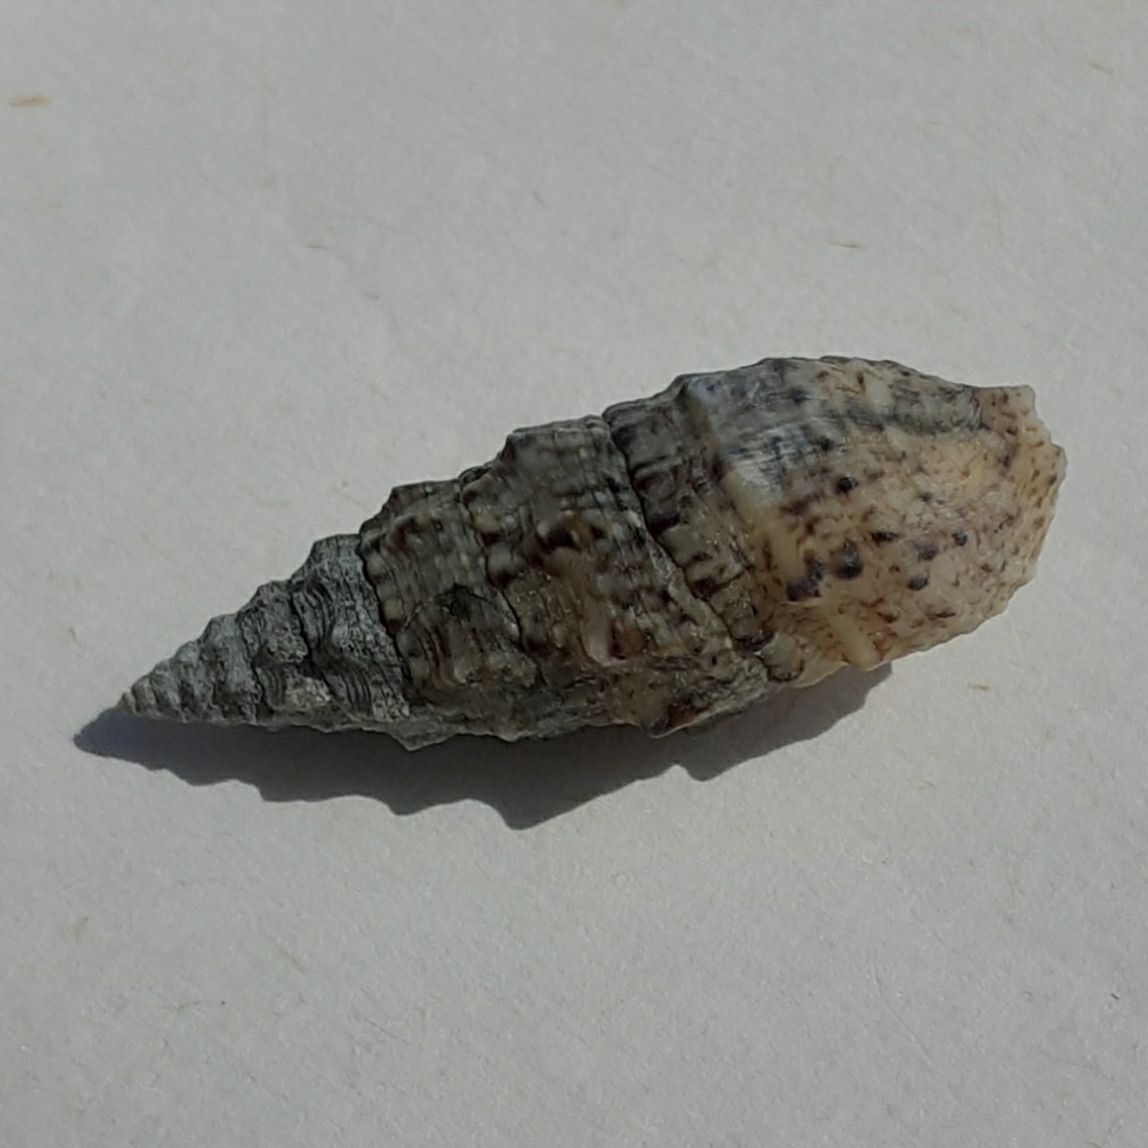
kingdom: Animalia
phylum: Mollusca
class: Gastropoda
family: Cerithiidae
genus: Cerithium
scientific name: Cerithium vulgatum
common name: European cerith
